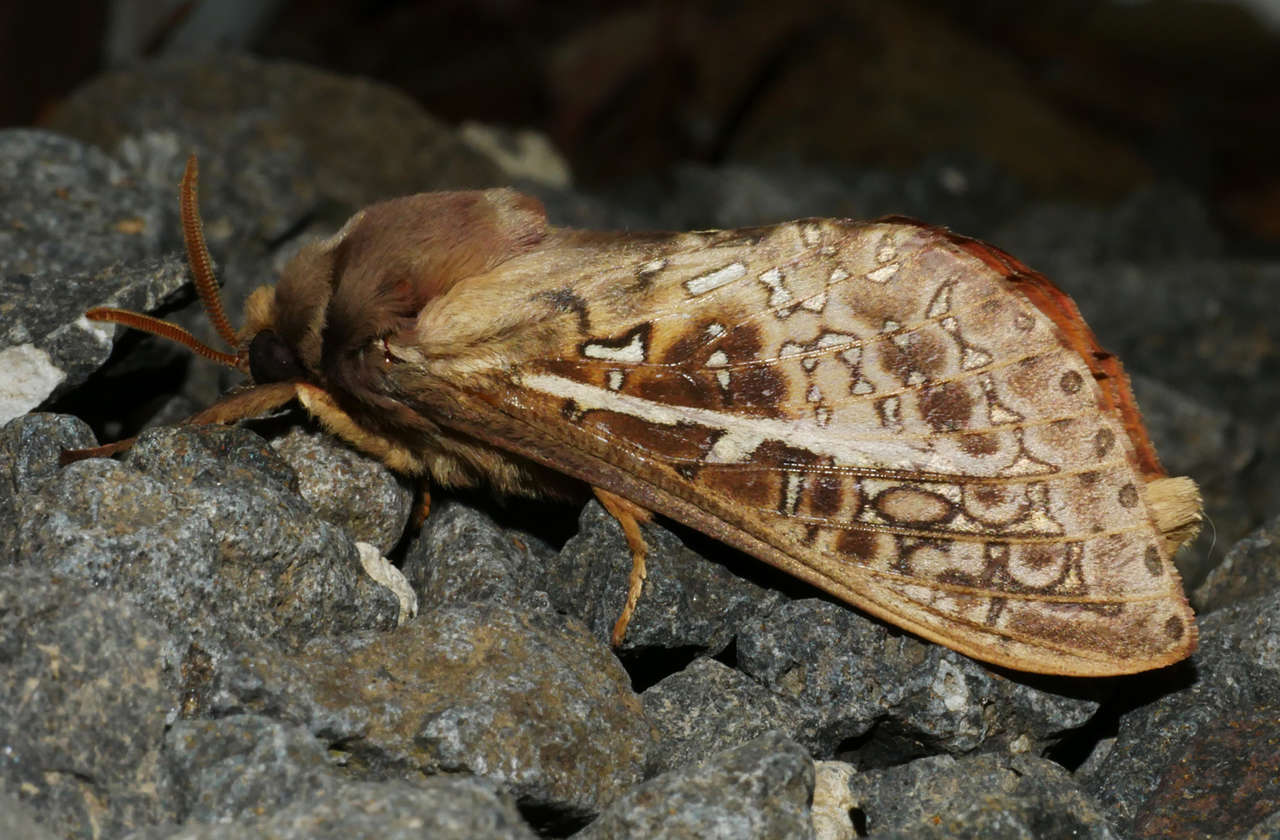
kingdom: Animalia
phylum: Arthropoda
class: Insecta
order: Lepidoptera
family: Hepialidae
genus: Oxycanus
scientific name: Oxycanus australis
